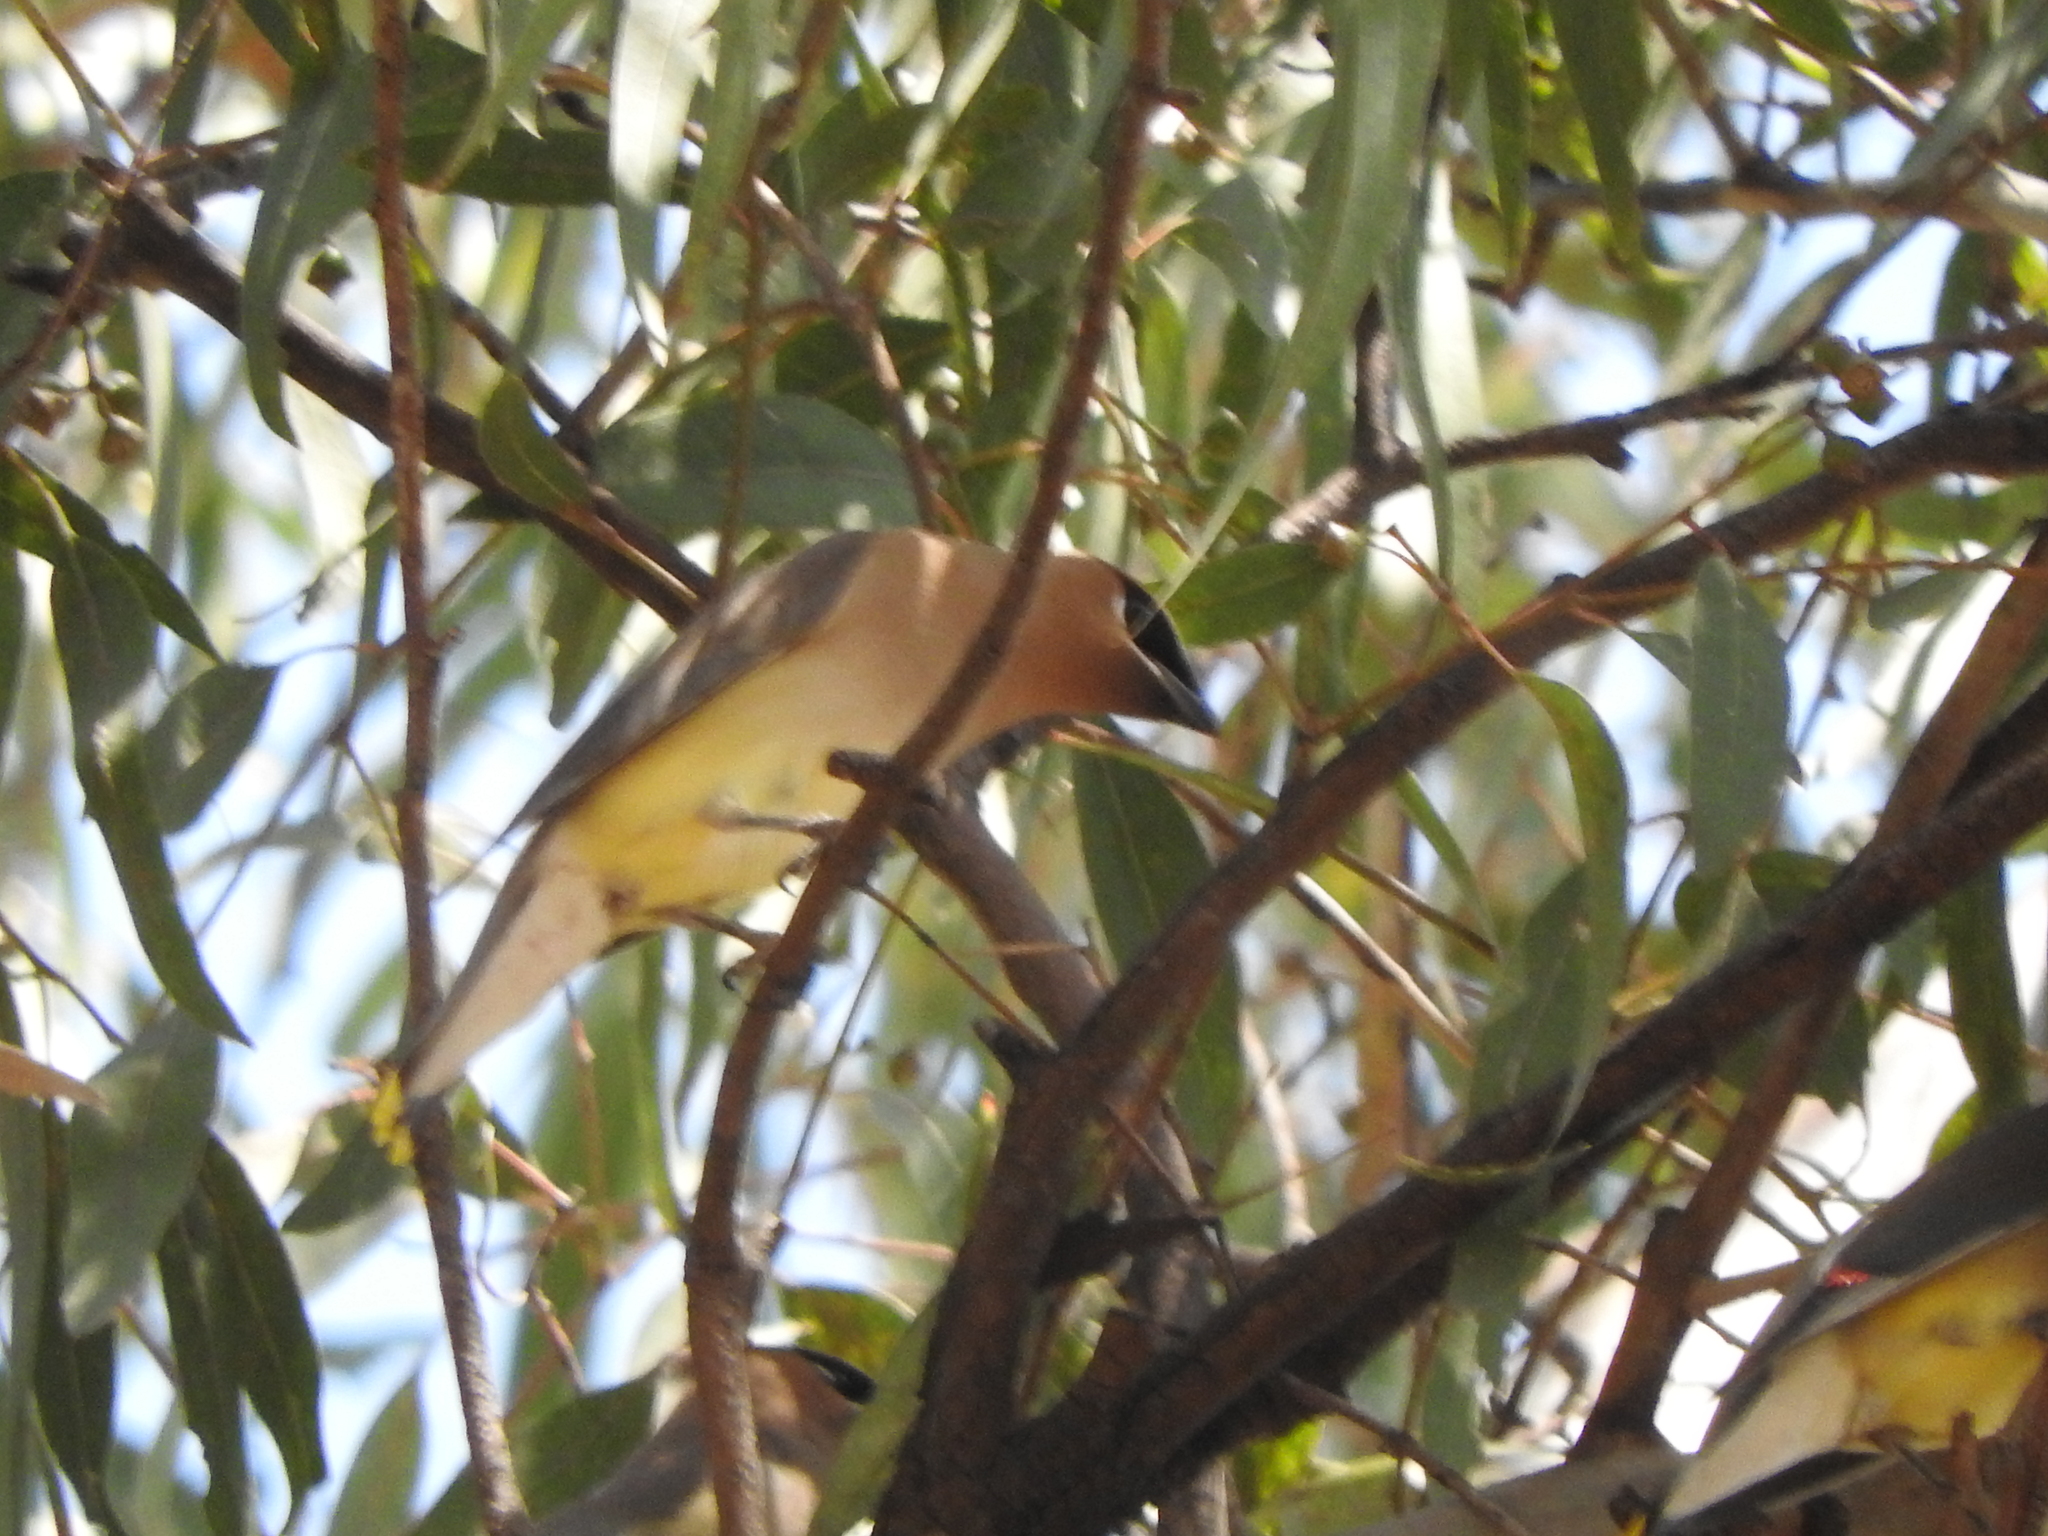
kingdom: Animalia
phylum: Chordata
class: Aves
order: Passeriformes
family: Bombycillidae
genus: Bombycilla
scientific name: Bombycilla cedrorum
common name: Cedar waxwing
